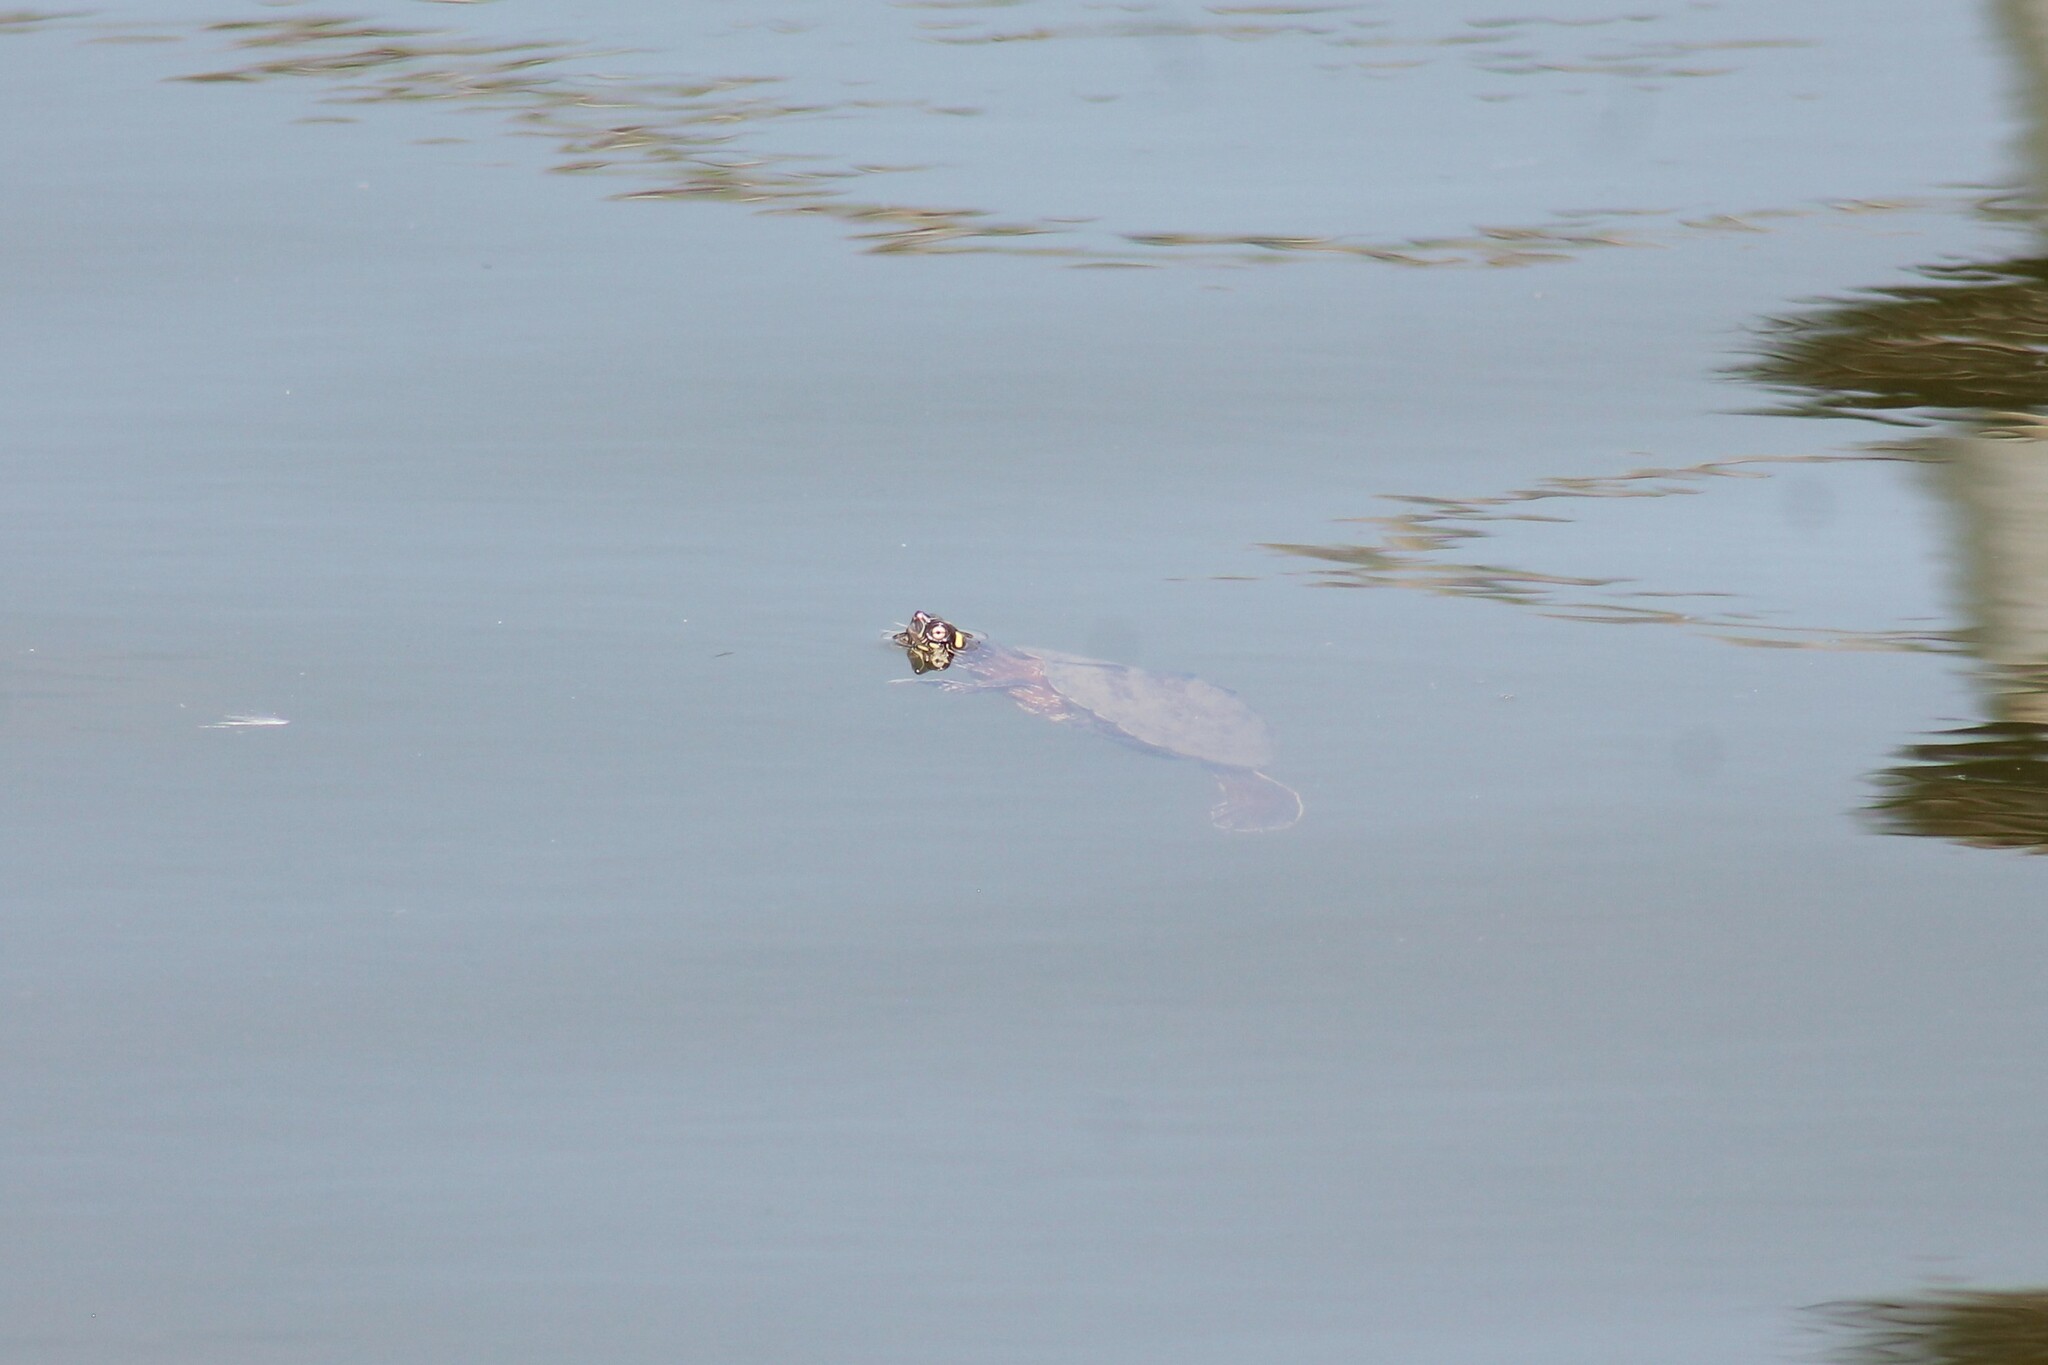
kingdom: Animalia
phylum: Chordata
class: Testudines
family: Emydidae
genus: Graptemys
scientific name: Graptemys ouachitensis
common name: Ouachita map turtle
